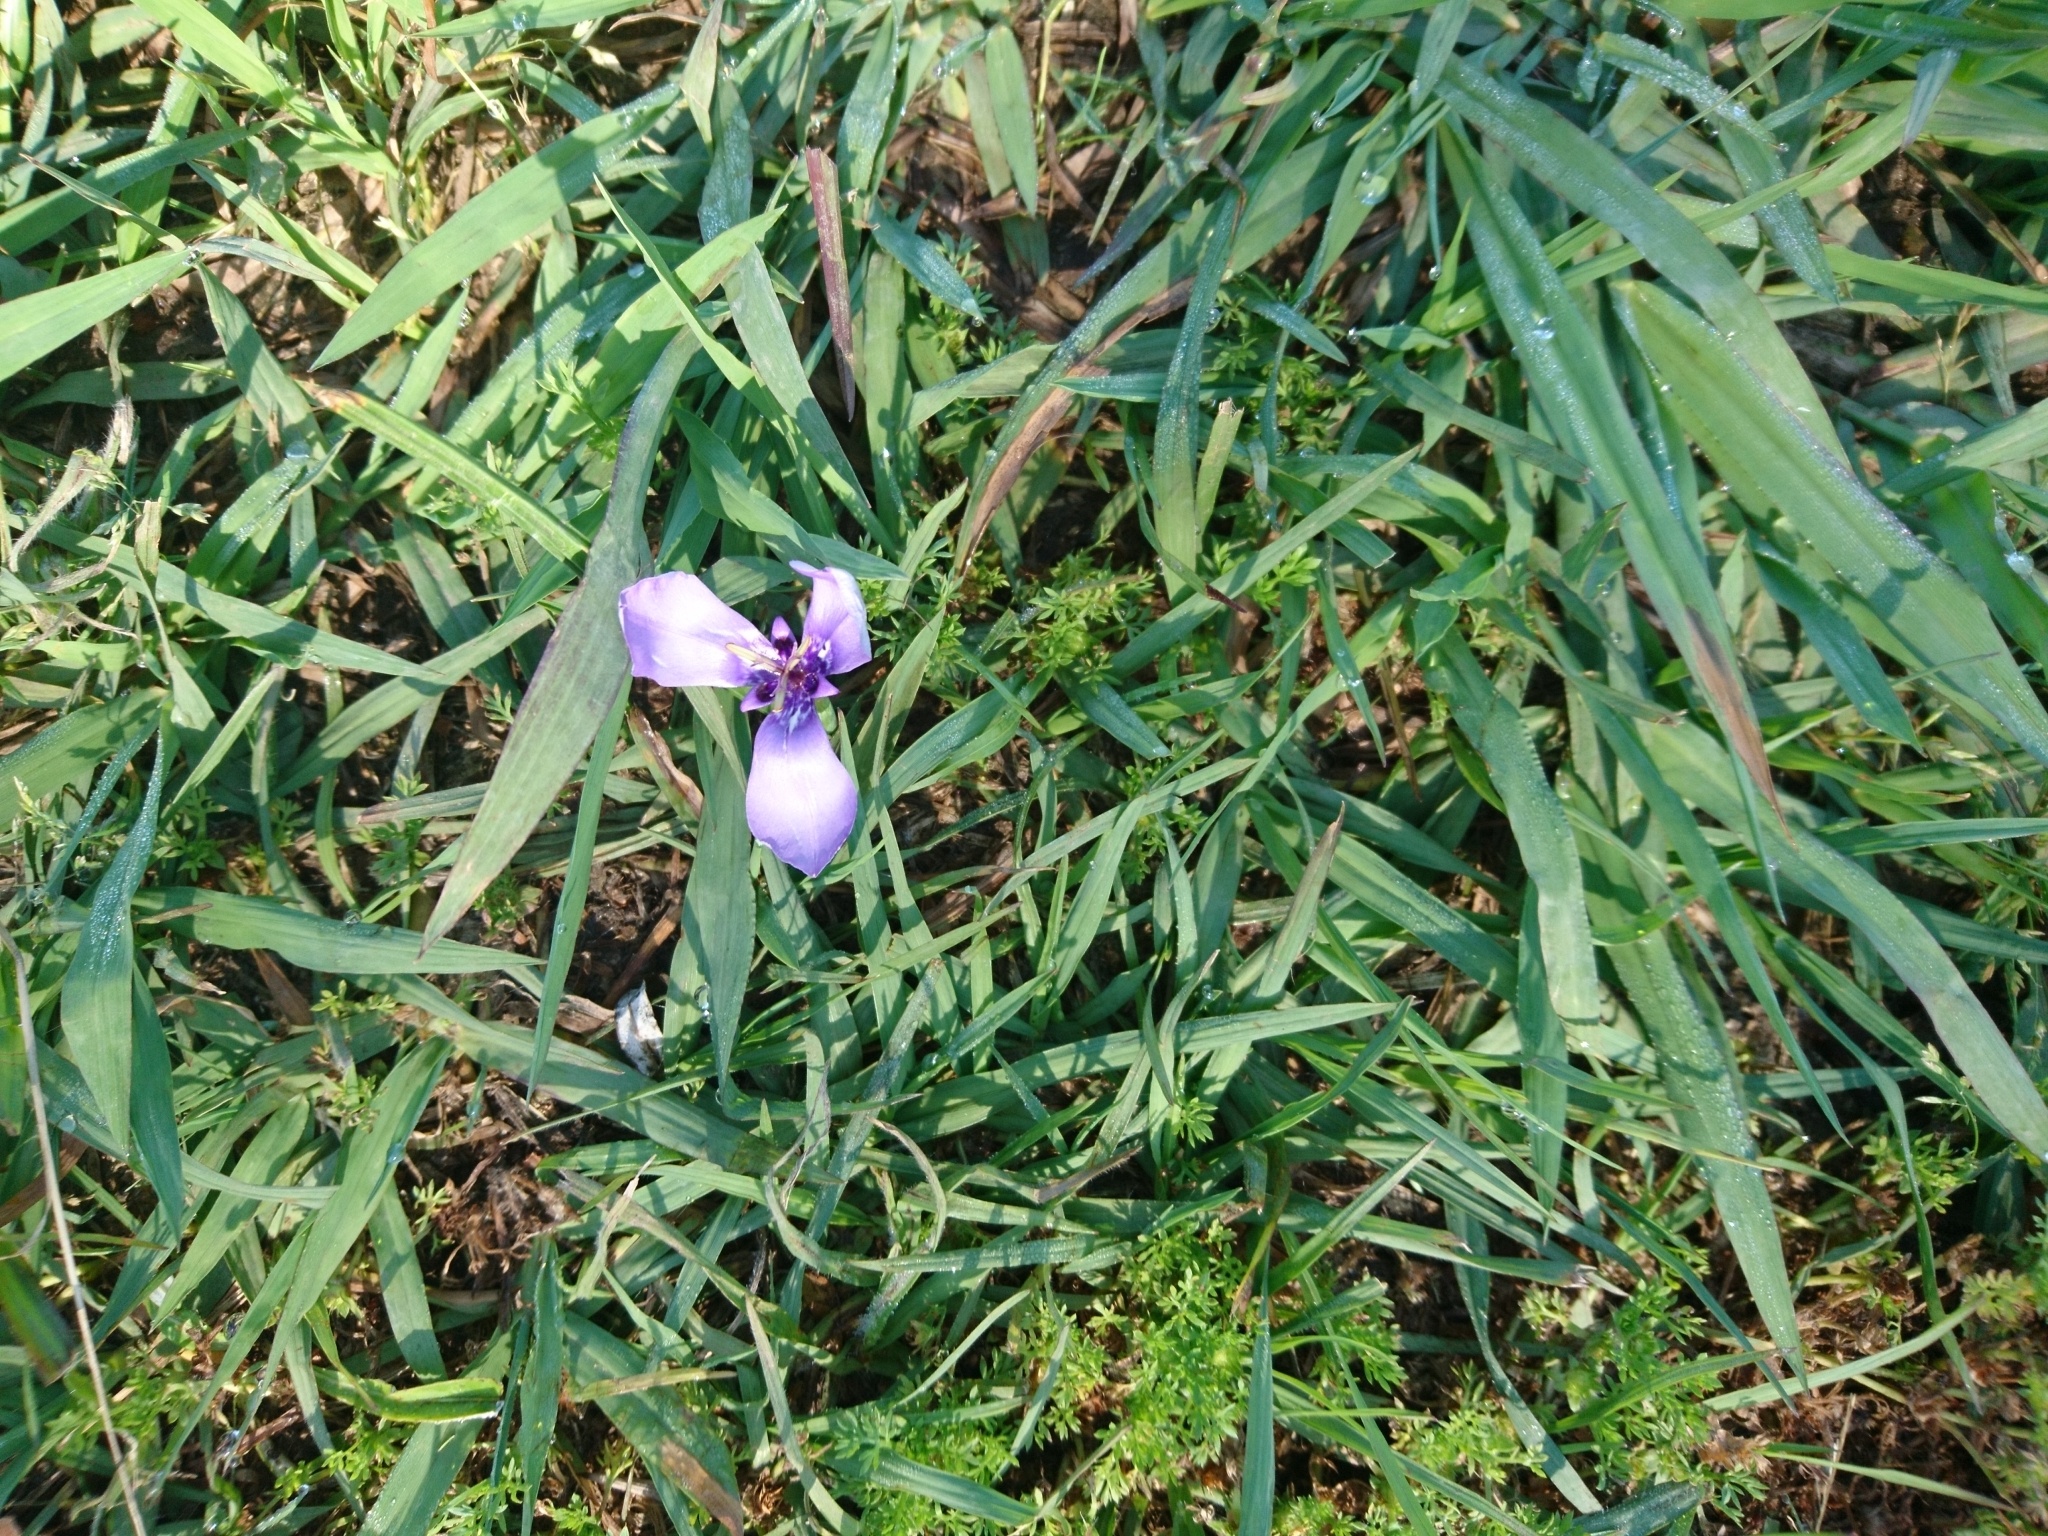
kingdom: Plantae
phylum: Tracheophyta
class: Liliopsida
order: Asparagales
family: Iridaceae
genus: Herbertia
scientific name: Herbertia lahue
